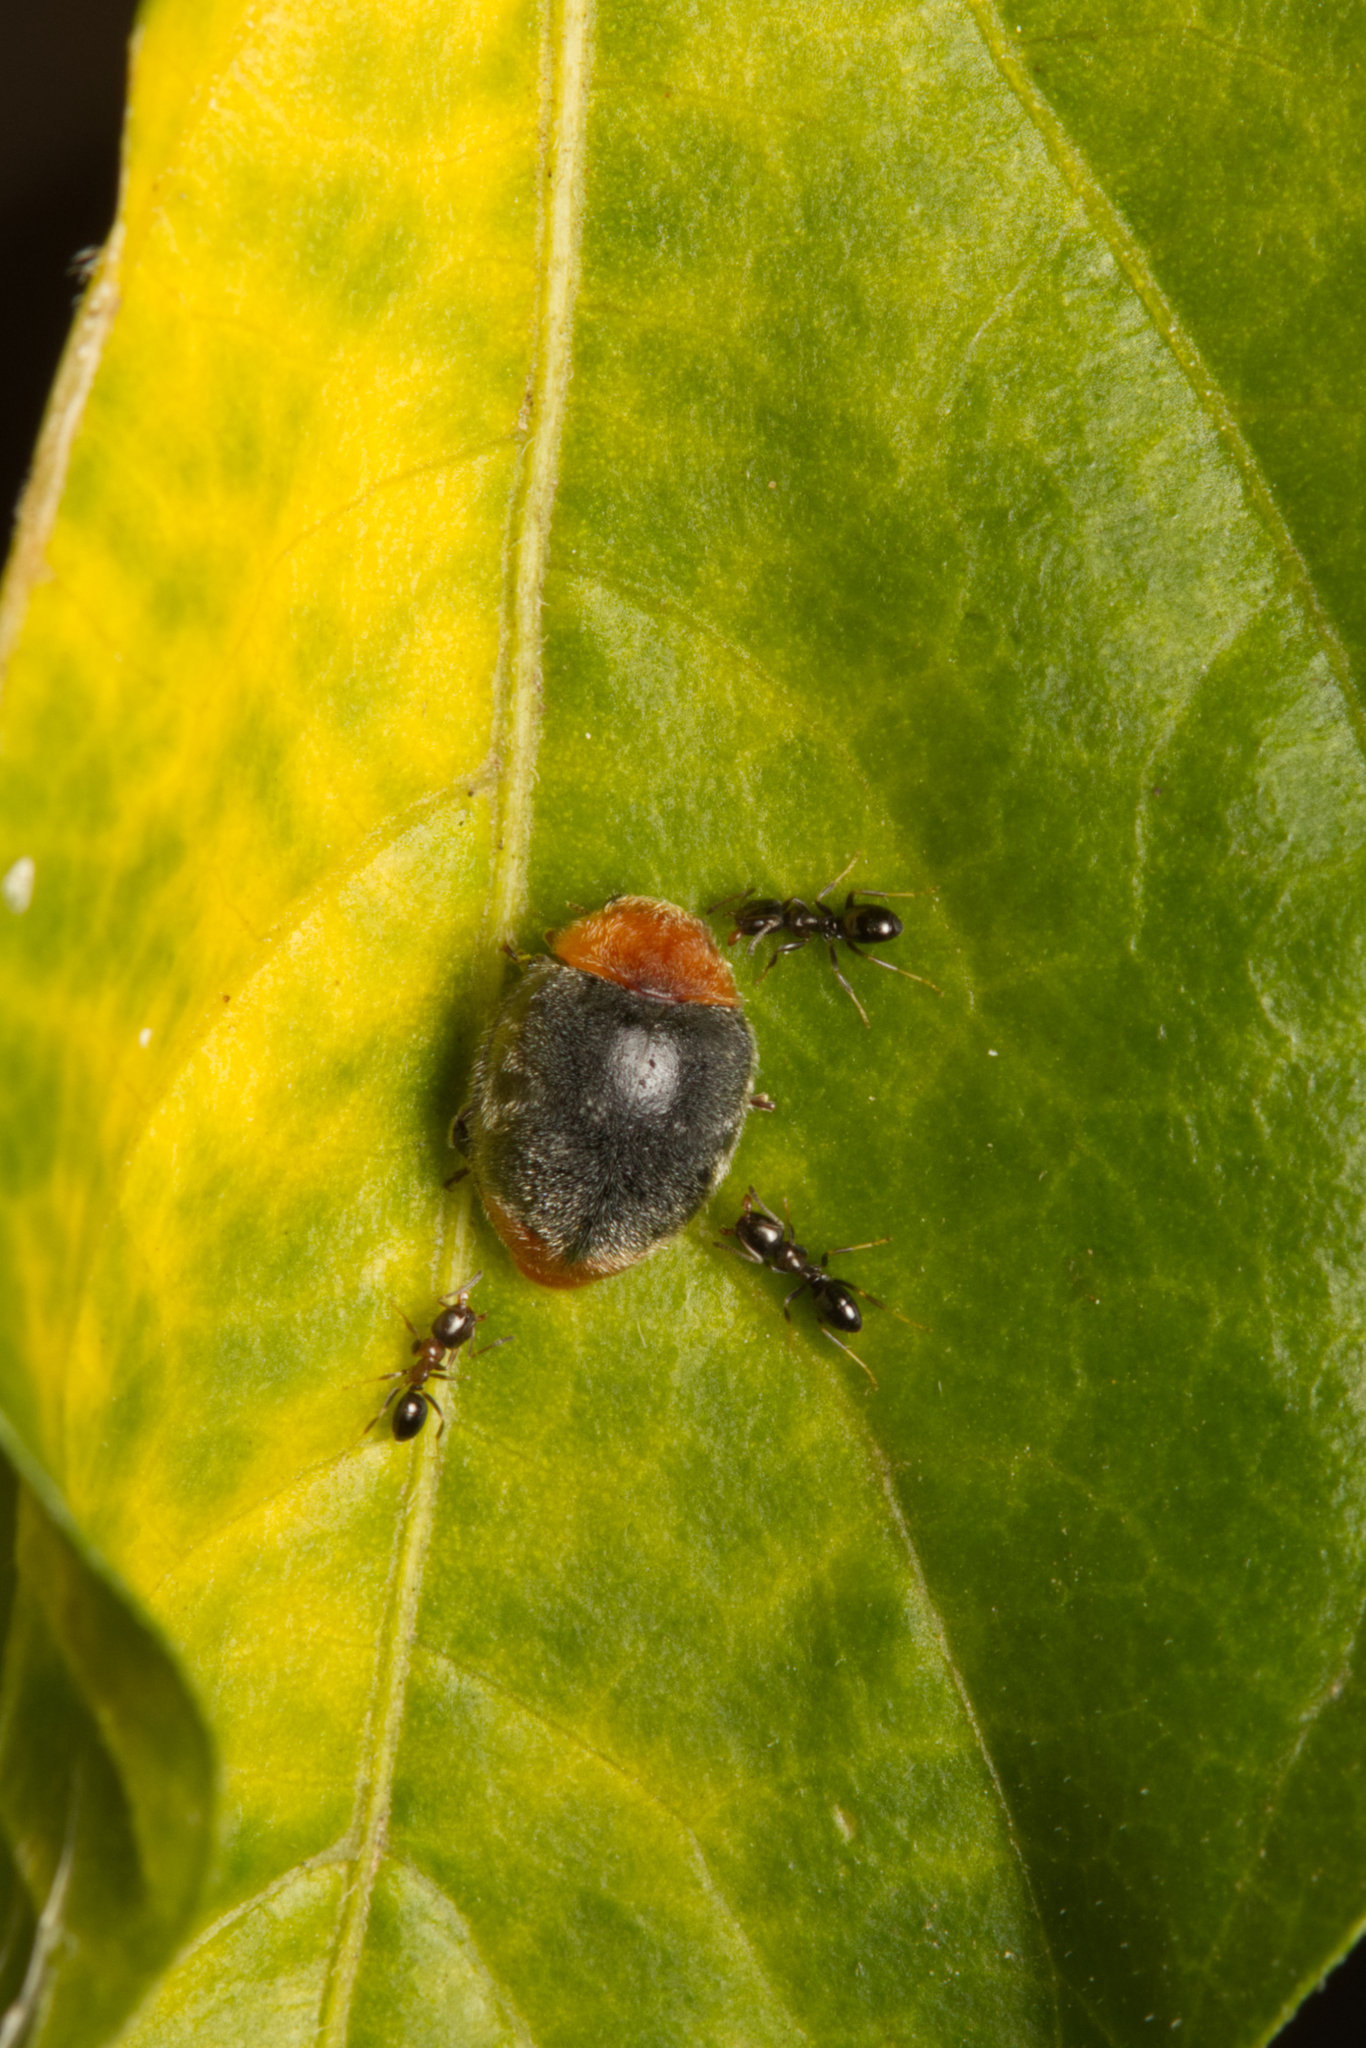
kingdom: Animalia
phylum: Arthropoda
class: Insecta
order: Coleoptera
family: Coccinellidae
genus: Cryptolaemus
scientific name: Cryptolaemus montrouzieri
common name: Mealybug destroyer
